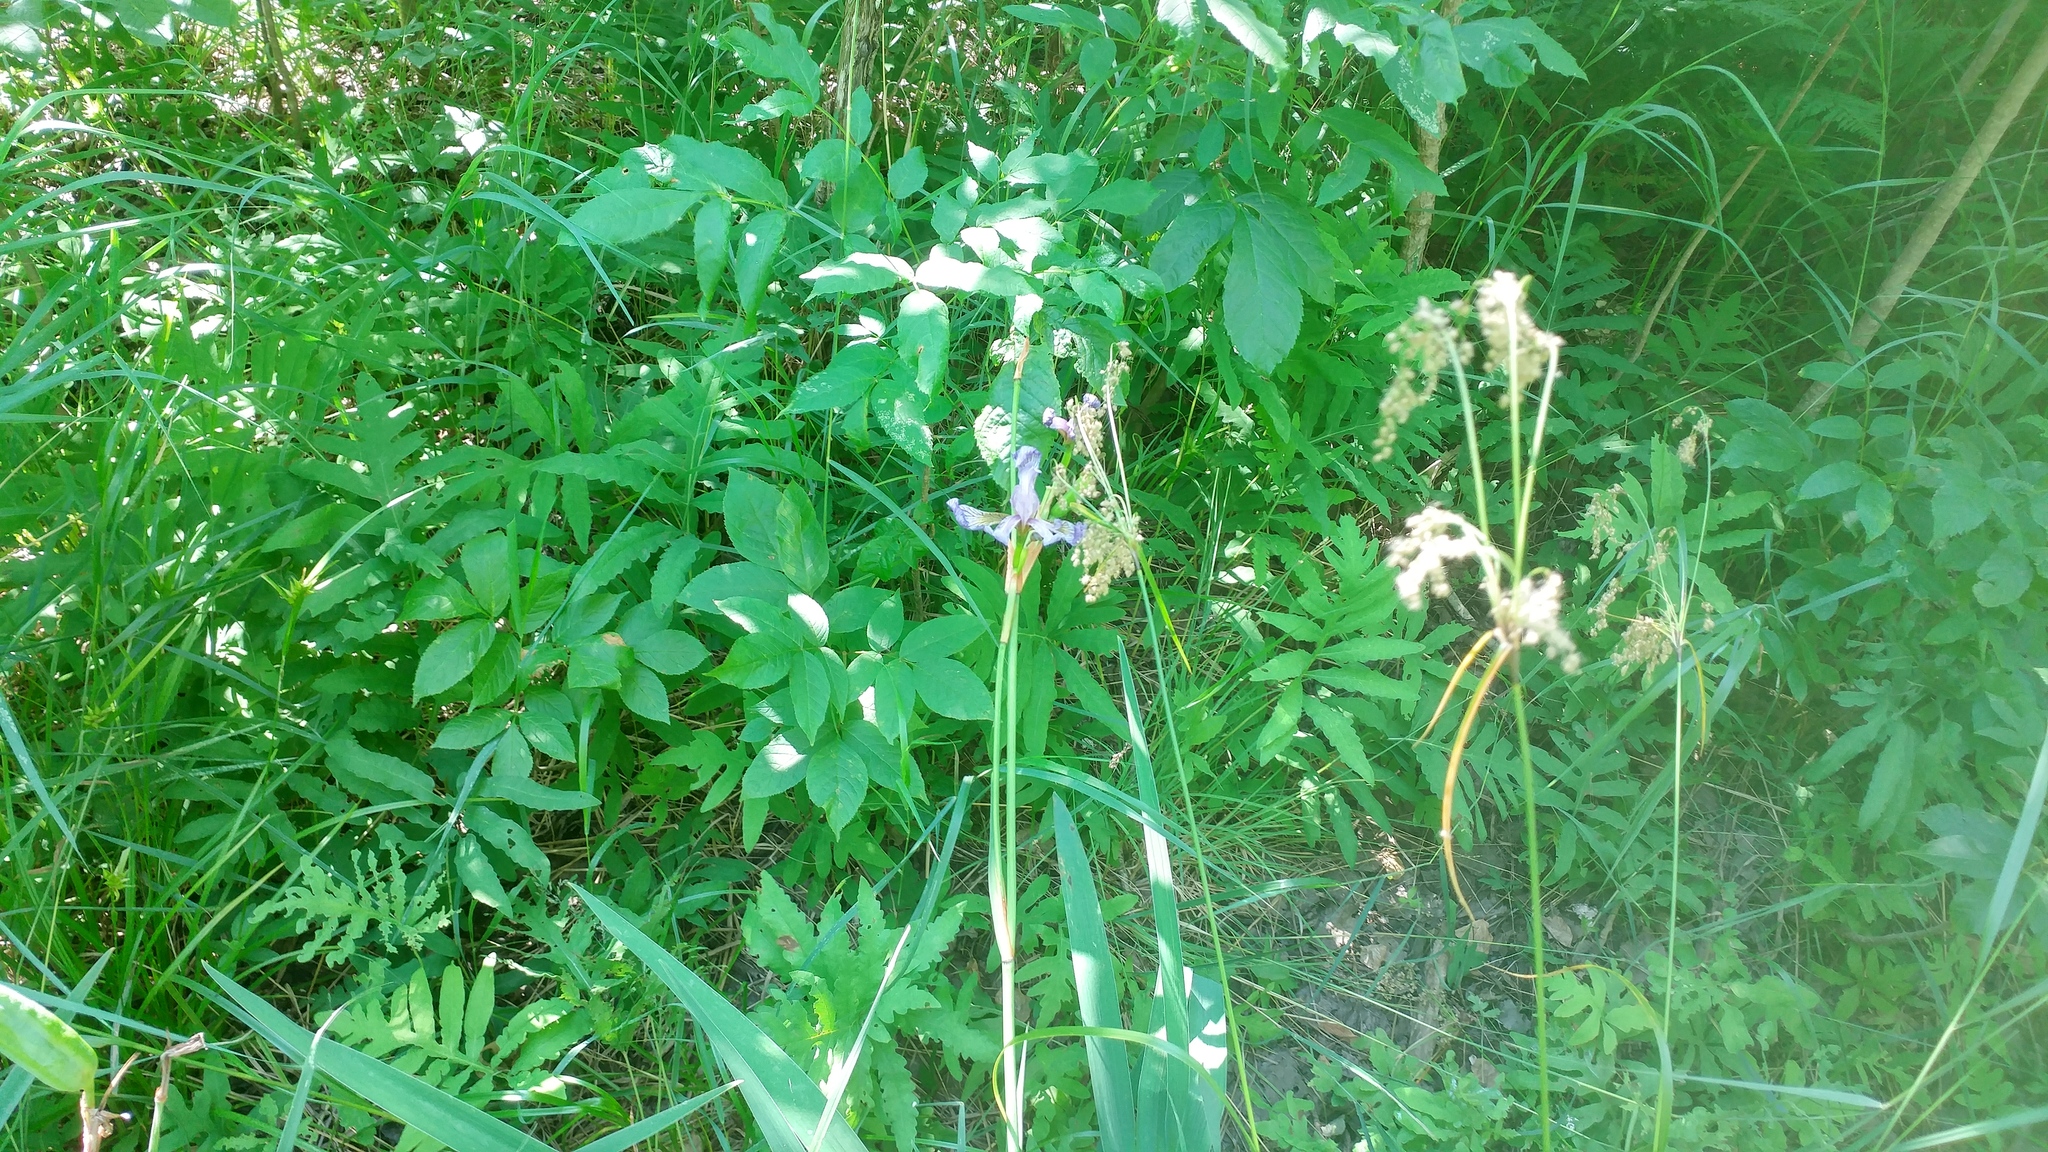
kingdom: Plantae
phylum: Tracheophyta
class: Liliopsida
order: Asparagales
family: Iridaceae
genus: Iris
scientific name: Iris versicolor
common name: Purple iris
